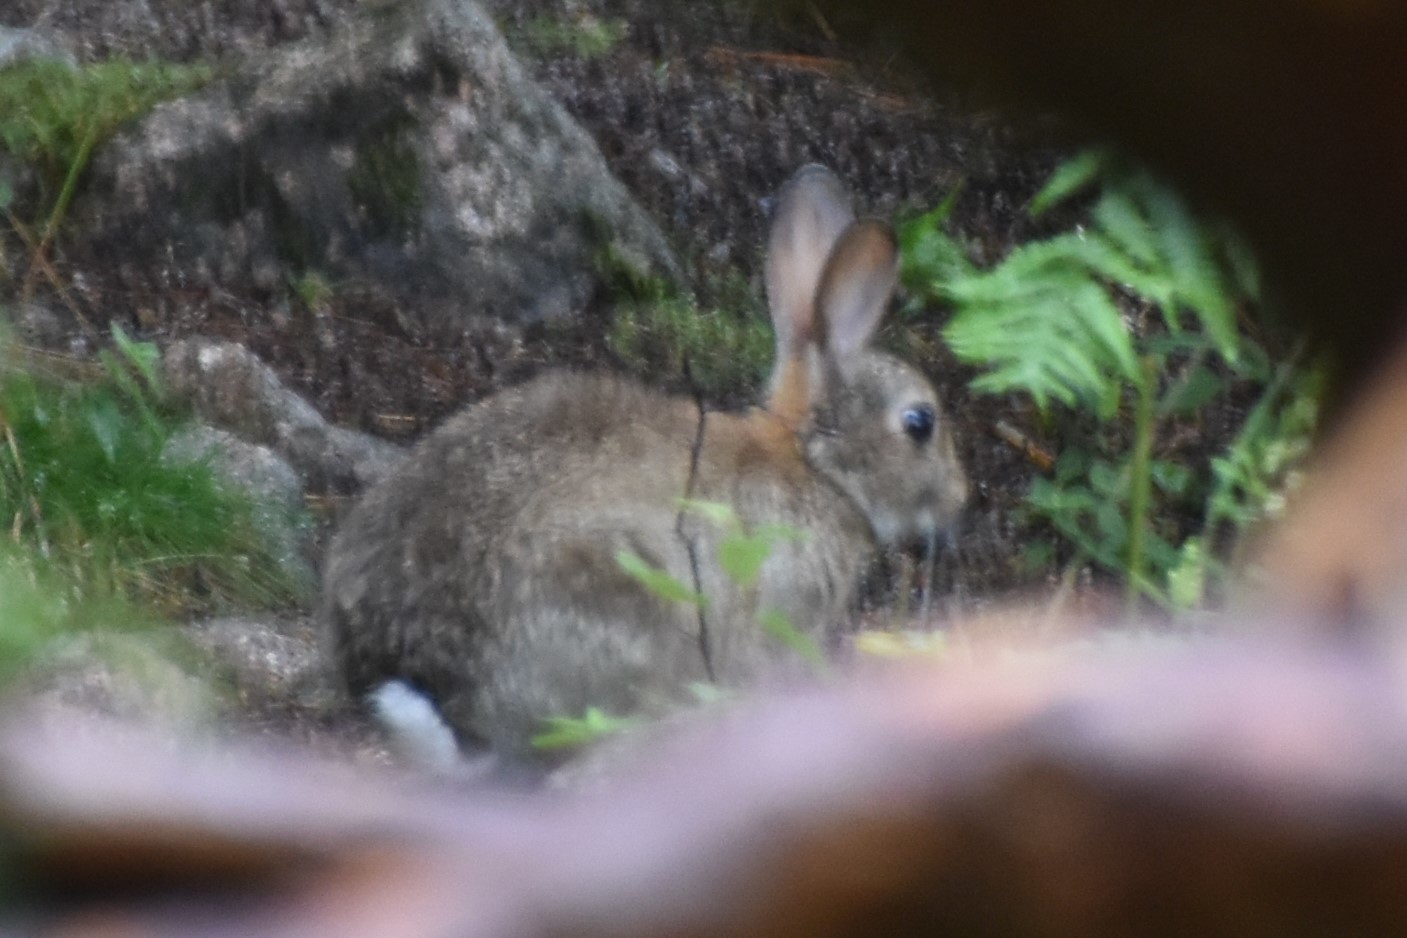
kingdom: Animalia
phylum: Chordata
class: Mammalia
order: Lagomorpha
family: Leporidae
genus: Oryctolagus
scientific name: Oryctolagus cuniculus
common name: European rabbit
